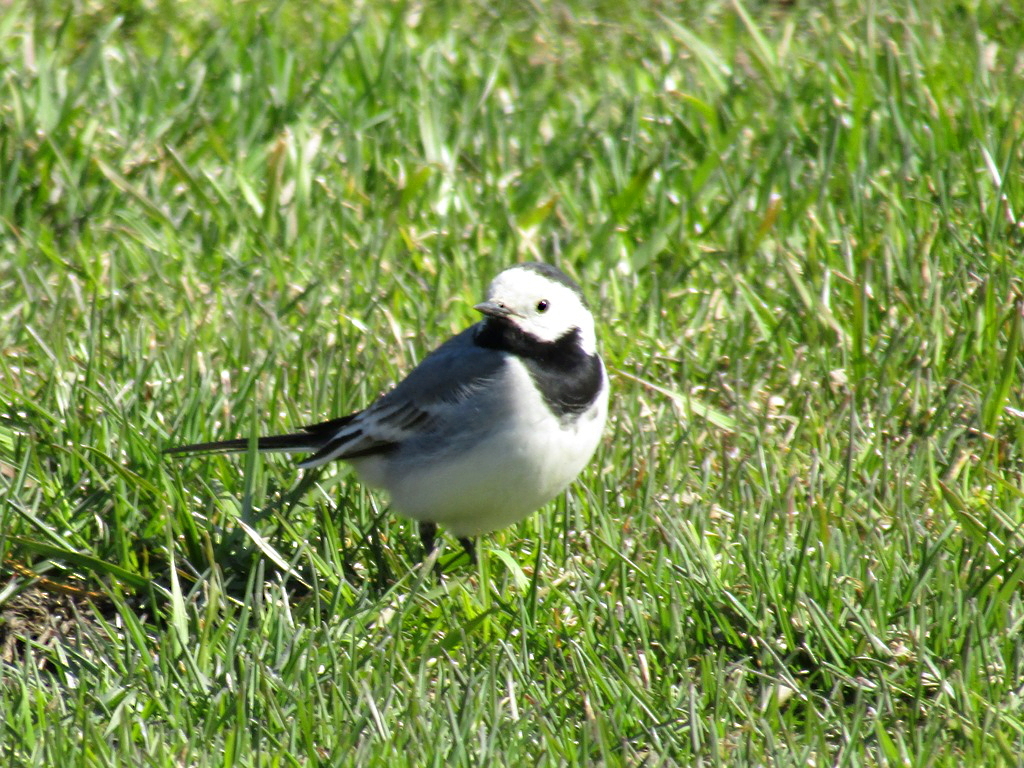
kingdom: Animalia
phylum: Chordata
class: Aves
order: Passeriformes
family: Motacillidae
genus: Motacilla
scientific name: Motacilla alba
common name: White wagtail
